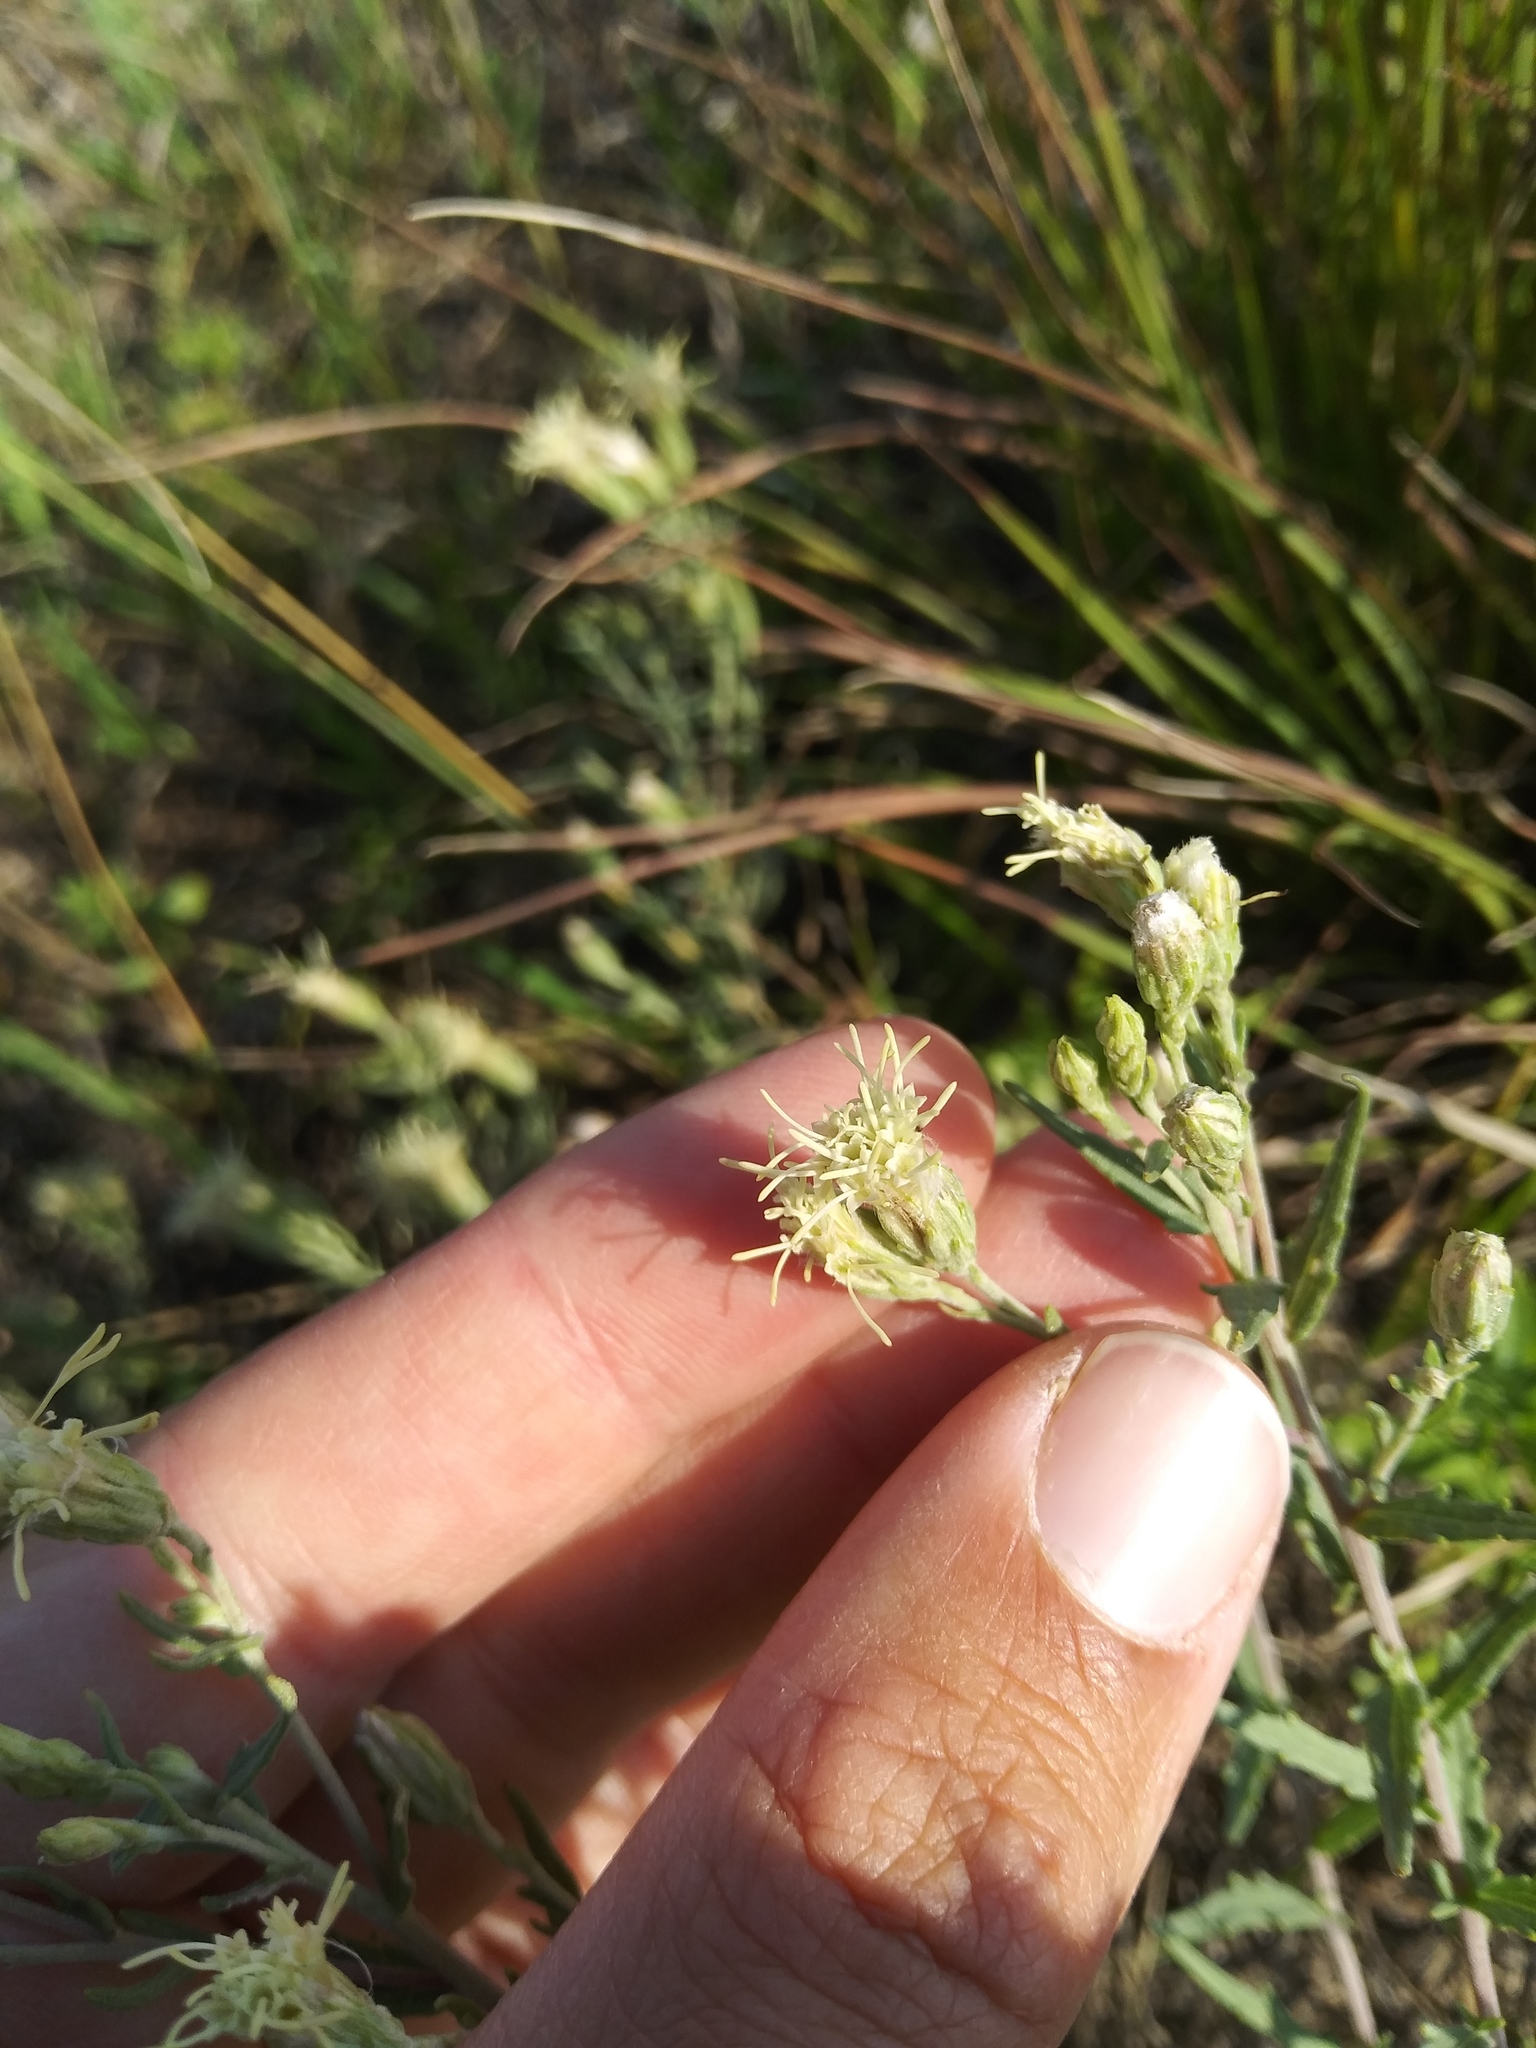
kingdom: Plantae
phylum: Tracheophyta
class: Magnoliopsida
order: Asterales
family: Asteraceae
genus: Brickellia
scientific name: Brickellia eupatorioides
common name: False boneset
